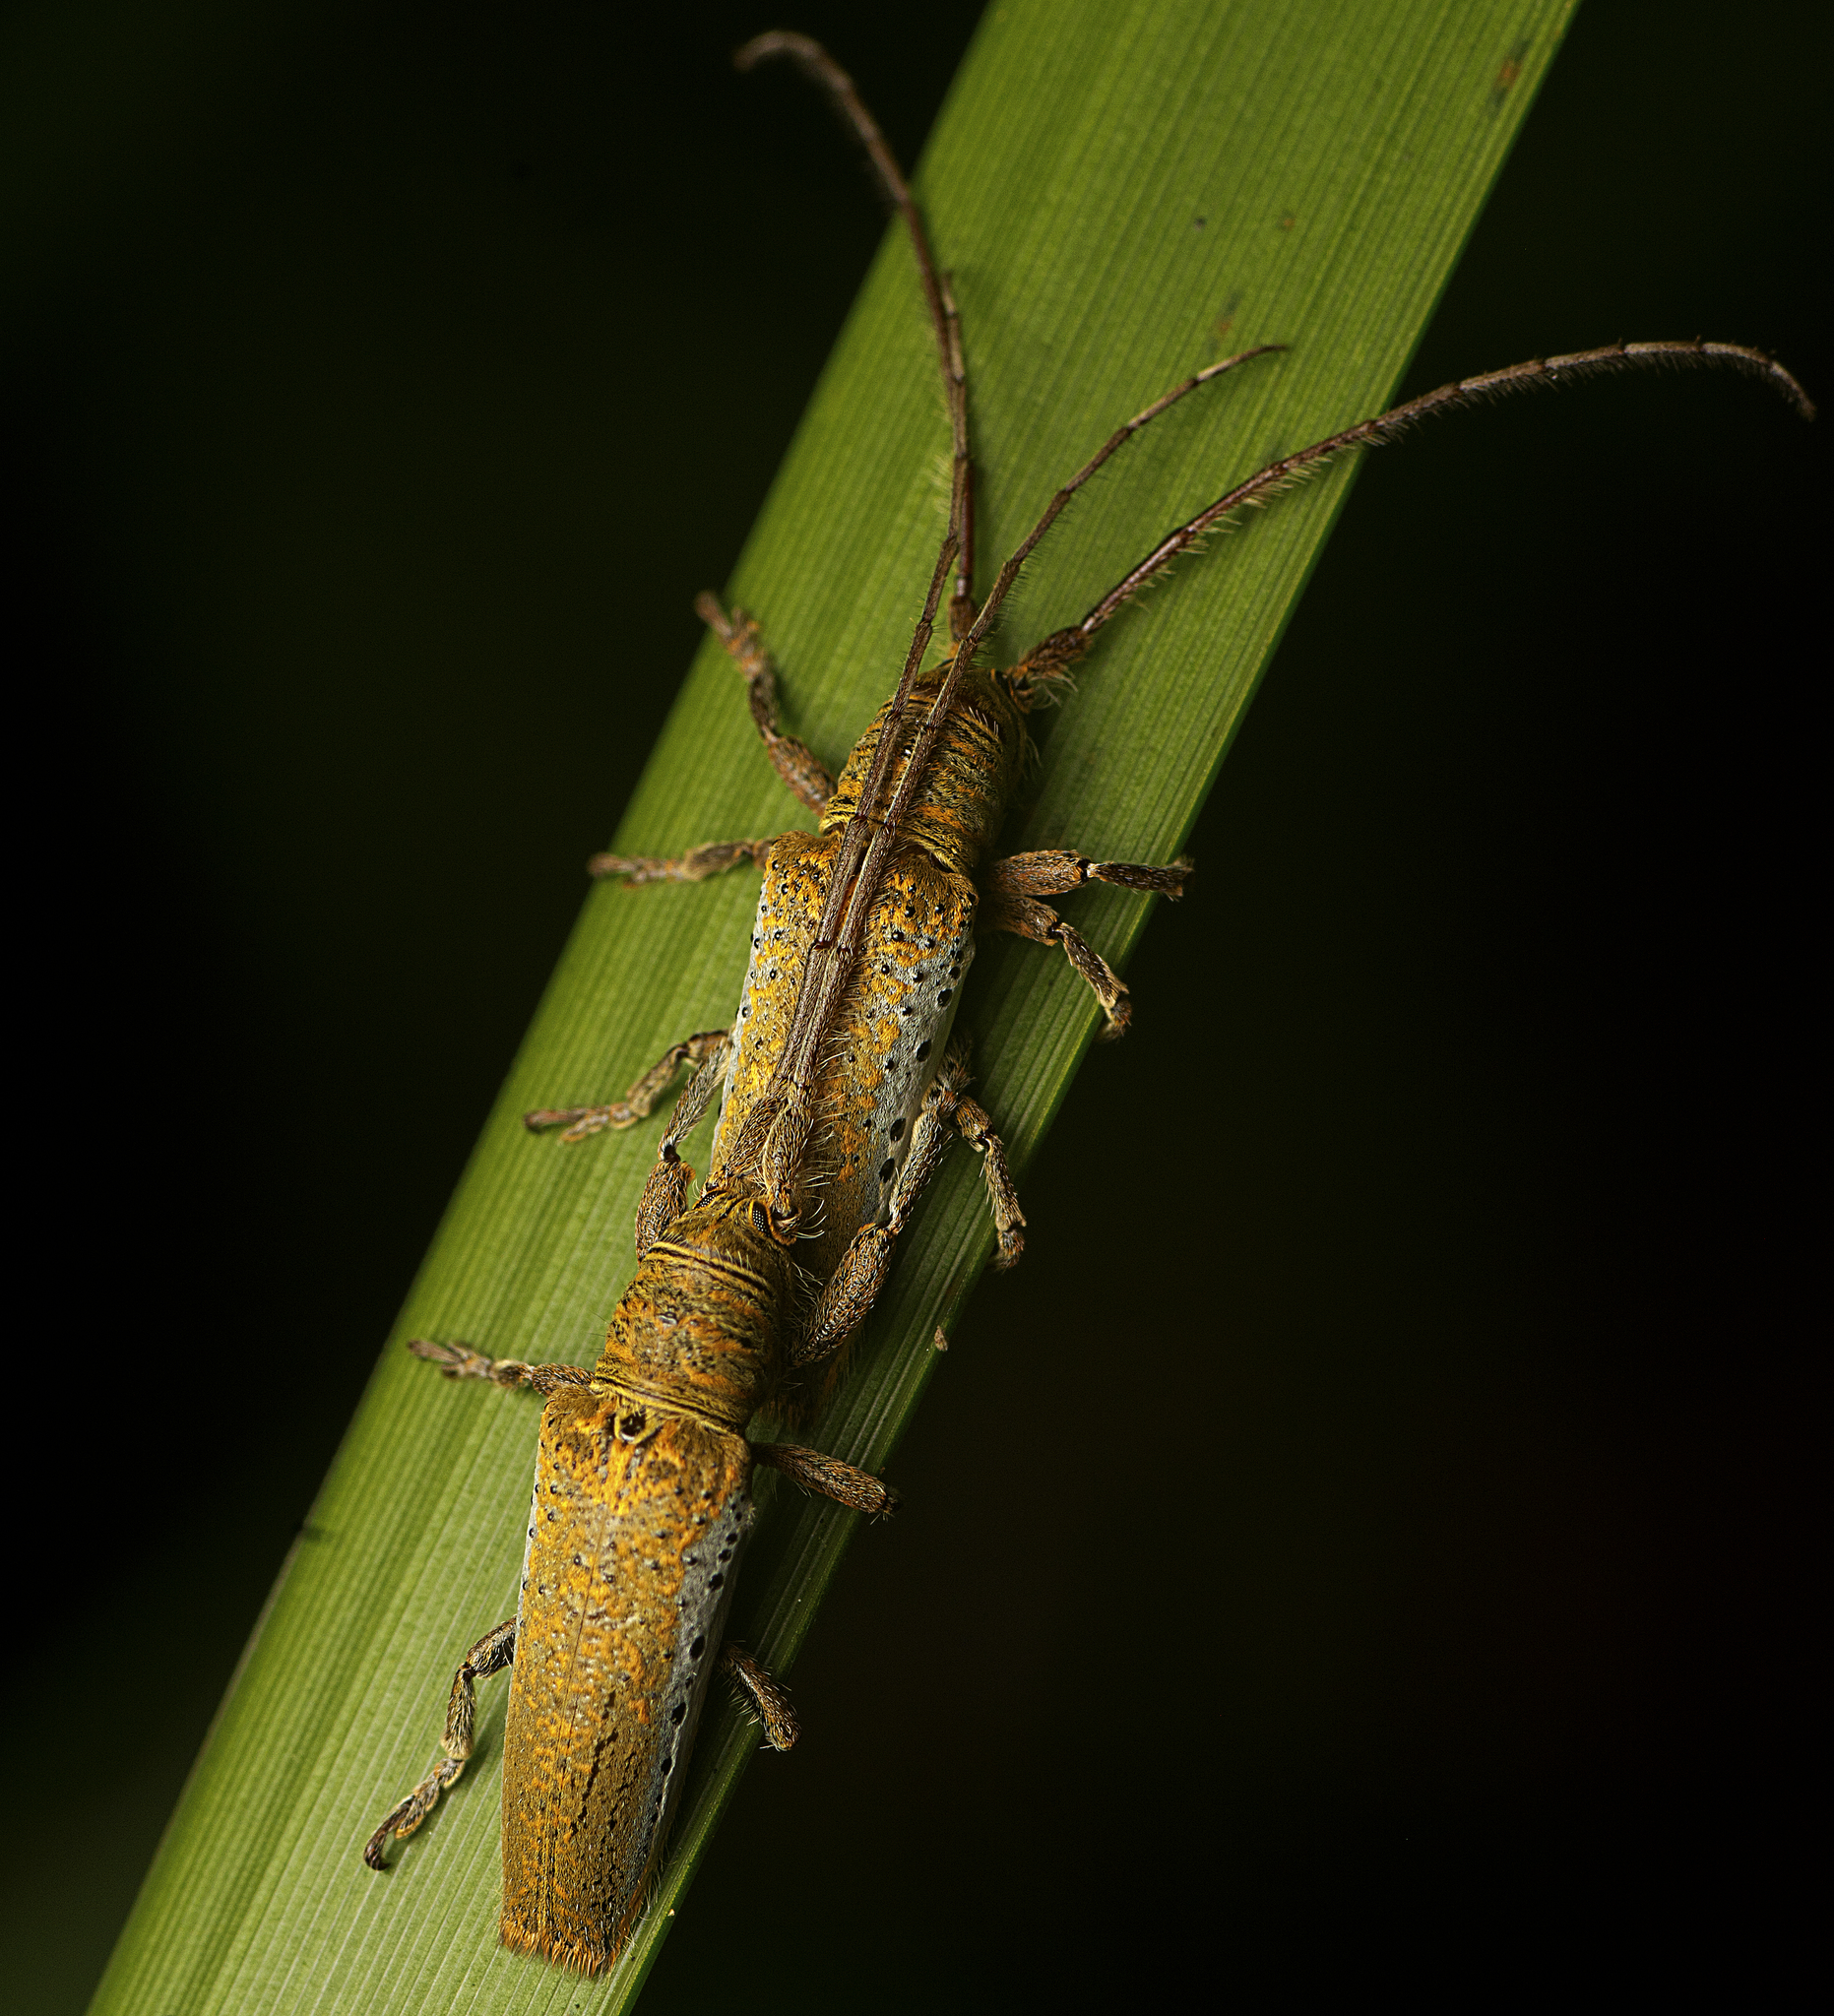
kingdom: Animalia
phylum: Arthropoda
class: Insecta
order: Coleoptera
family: Cerambycidae
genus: Rhytiphora
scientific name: Rhytiphora mjoebergi
